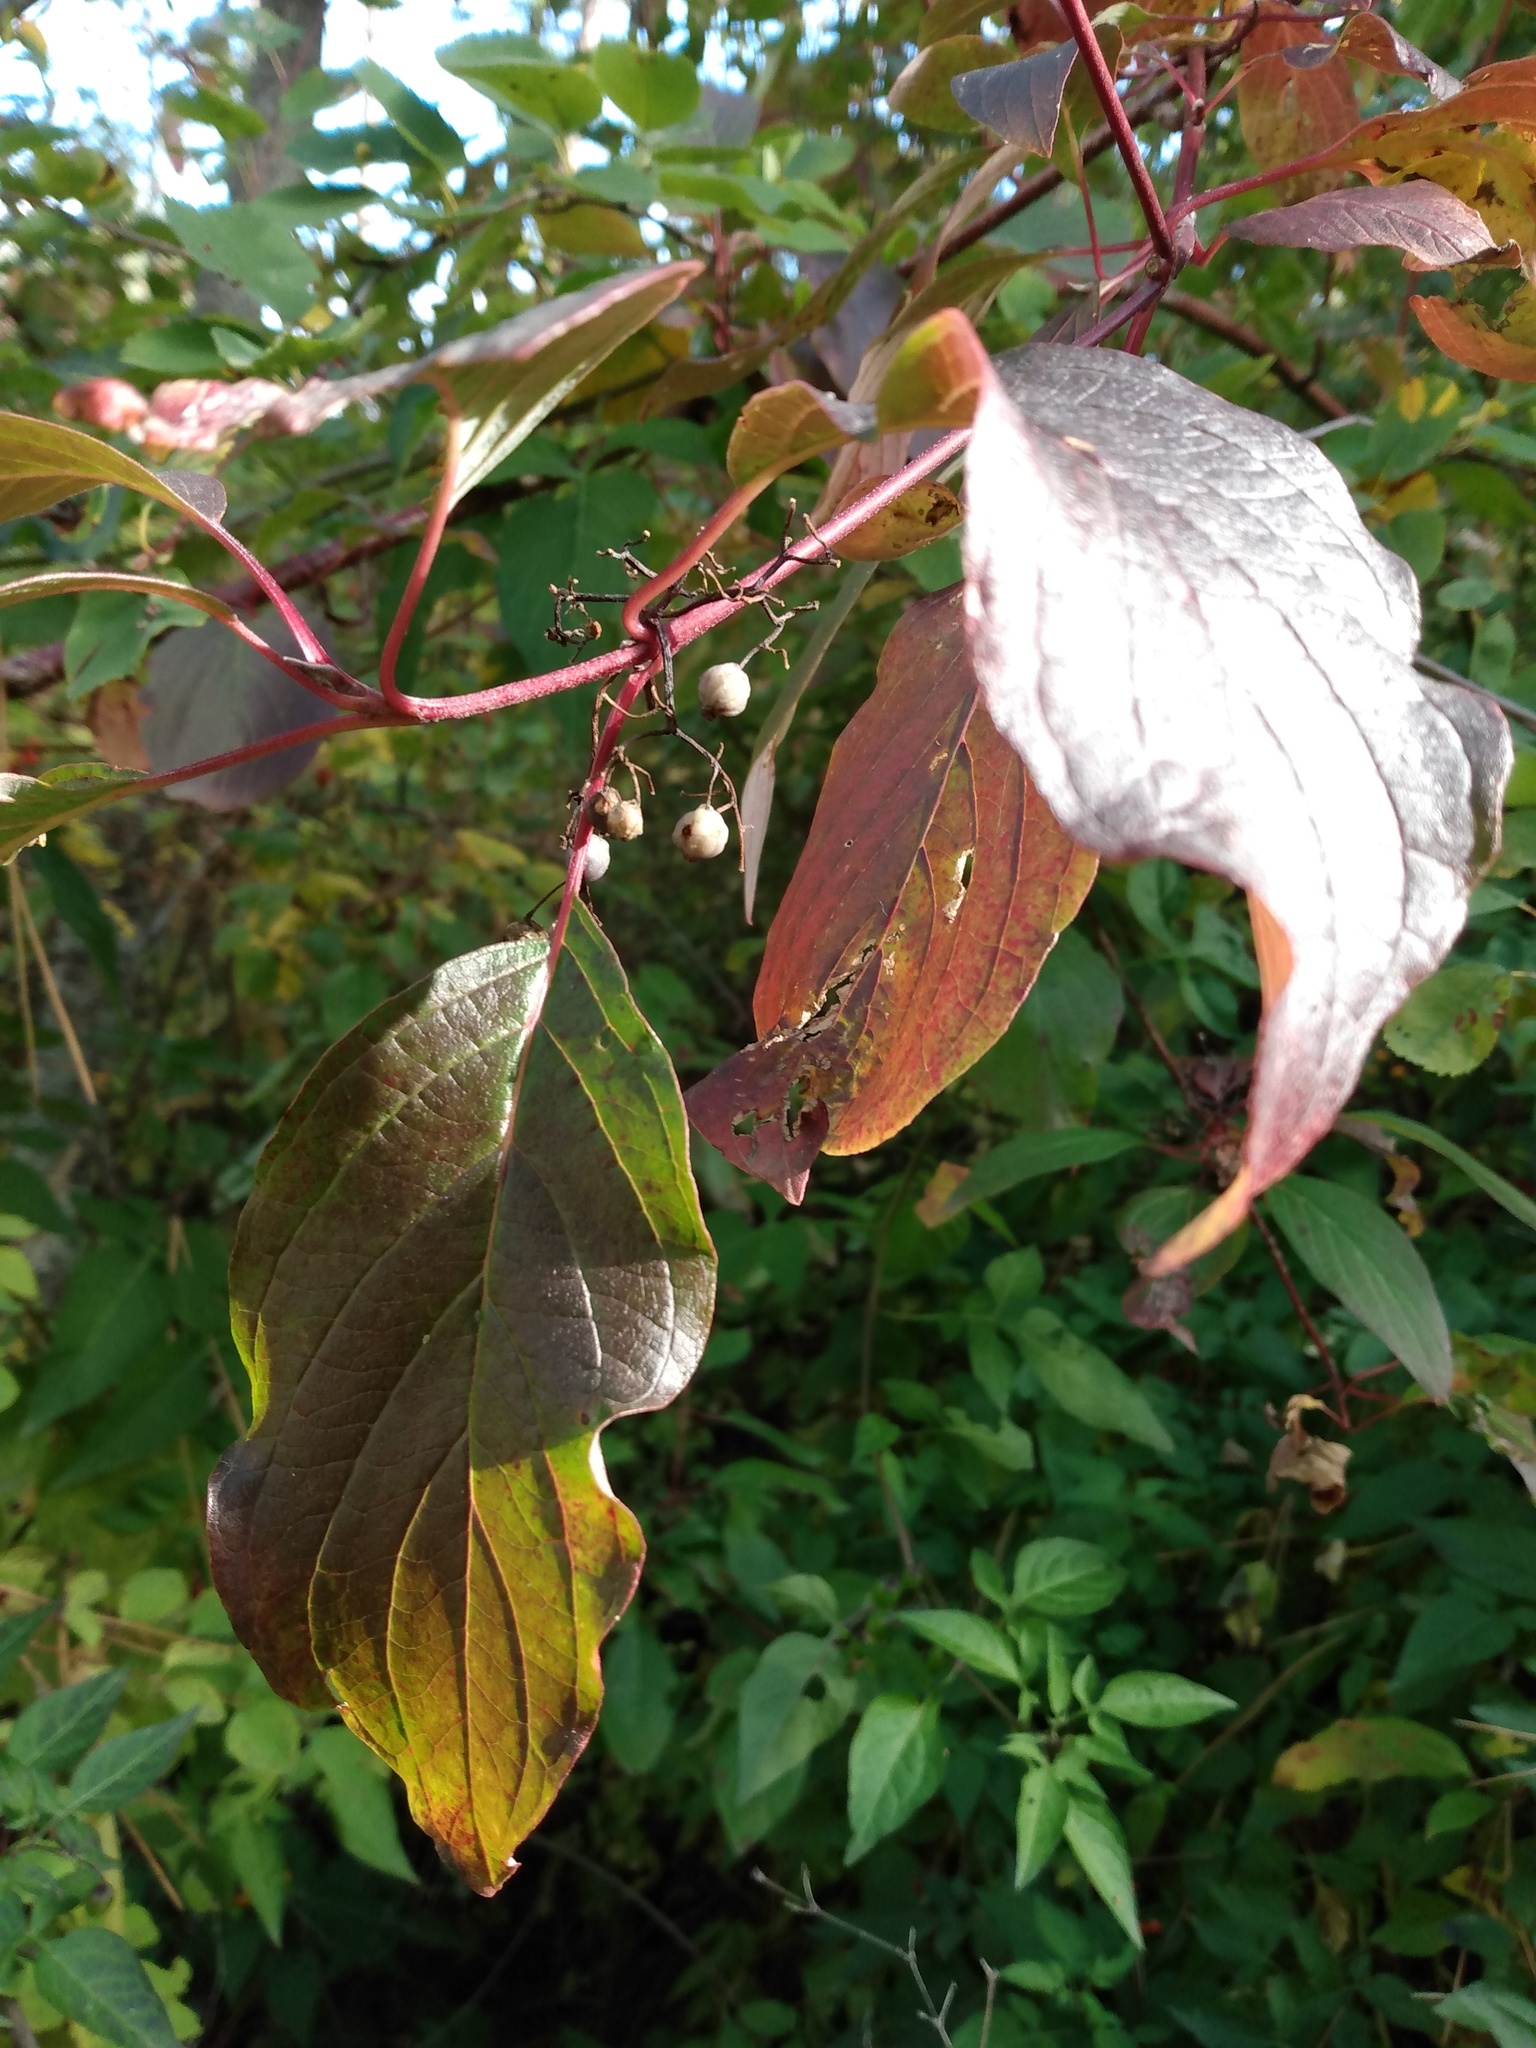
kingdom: Plantae
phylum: Tracheophyta
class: Magnoliopsida
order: Cornales
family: Cornaceae
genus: Cornus
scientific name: Cornus sericea
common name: Red-osier dogwood
